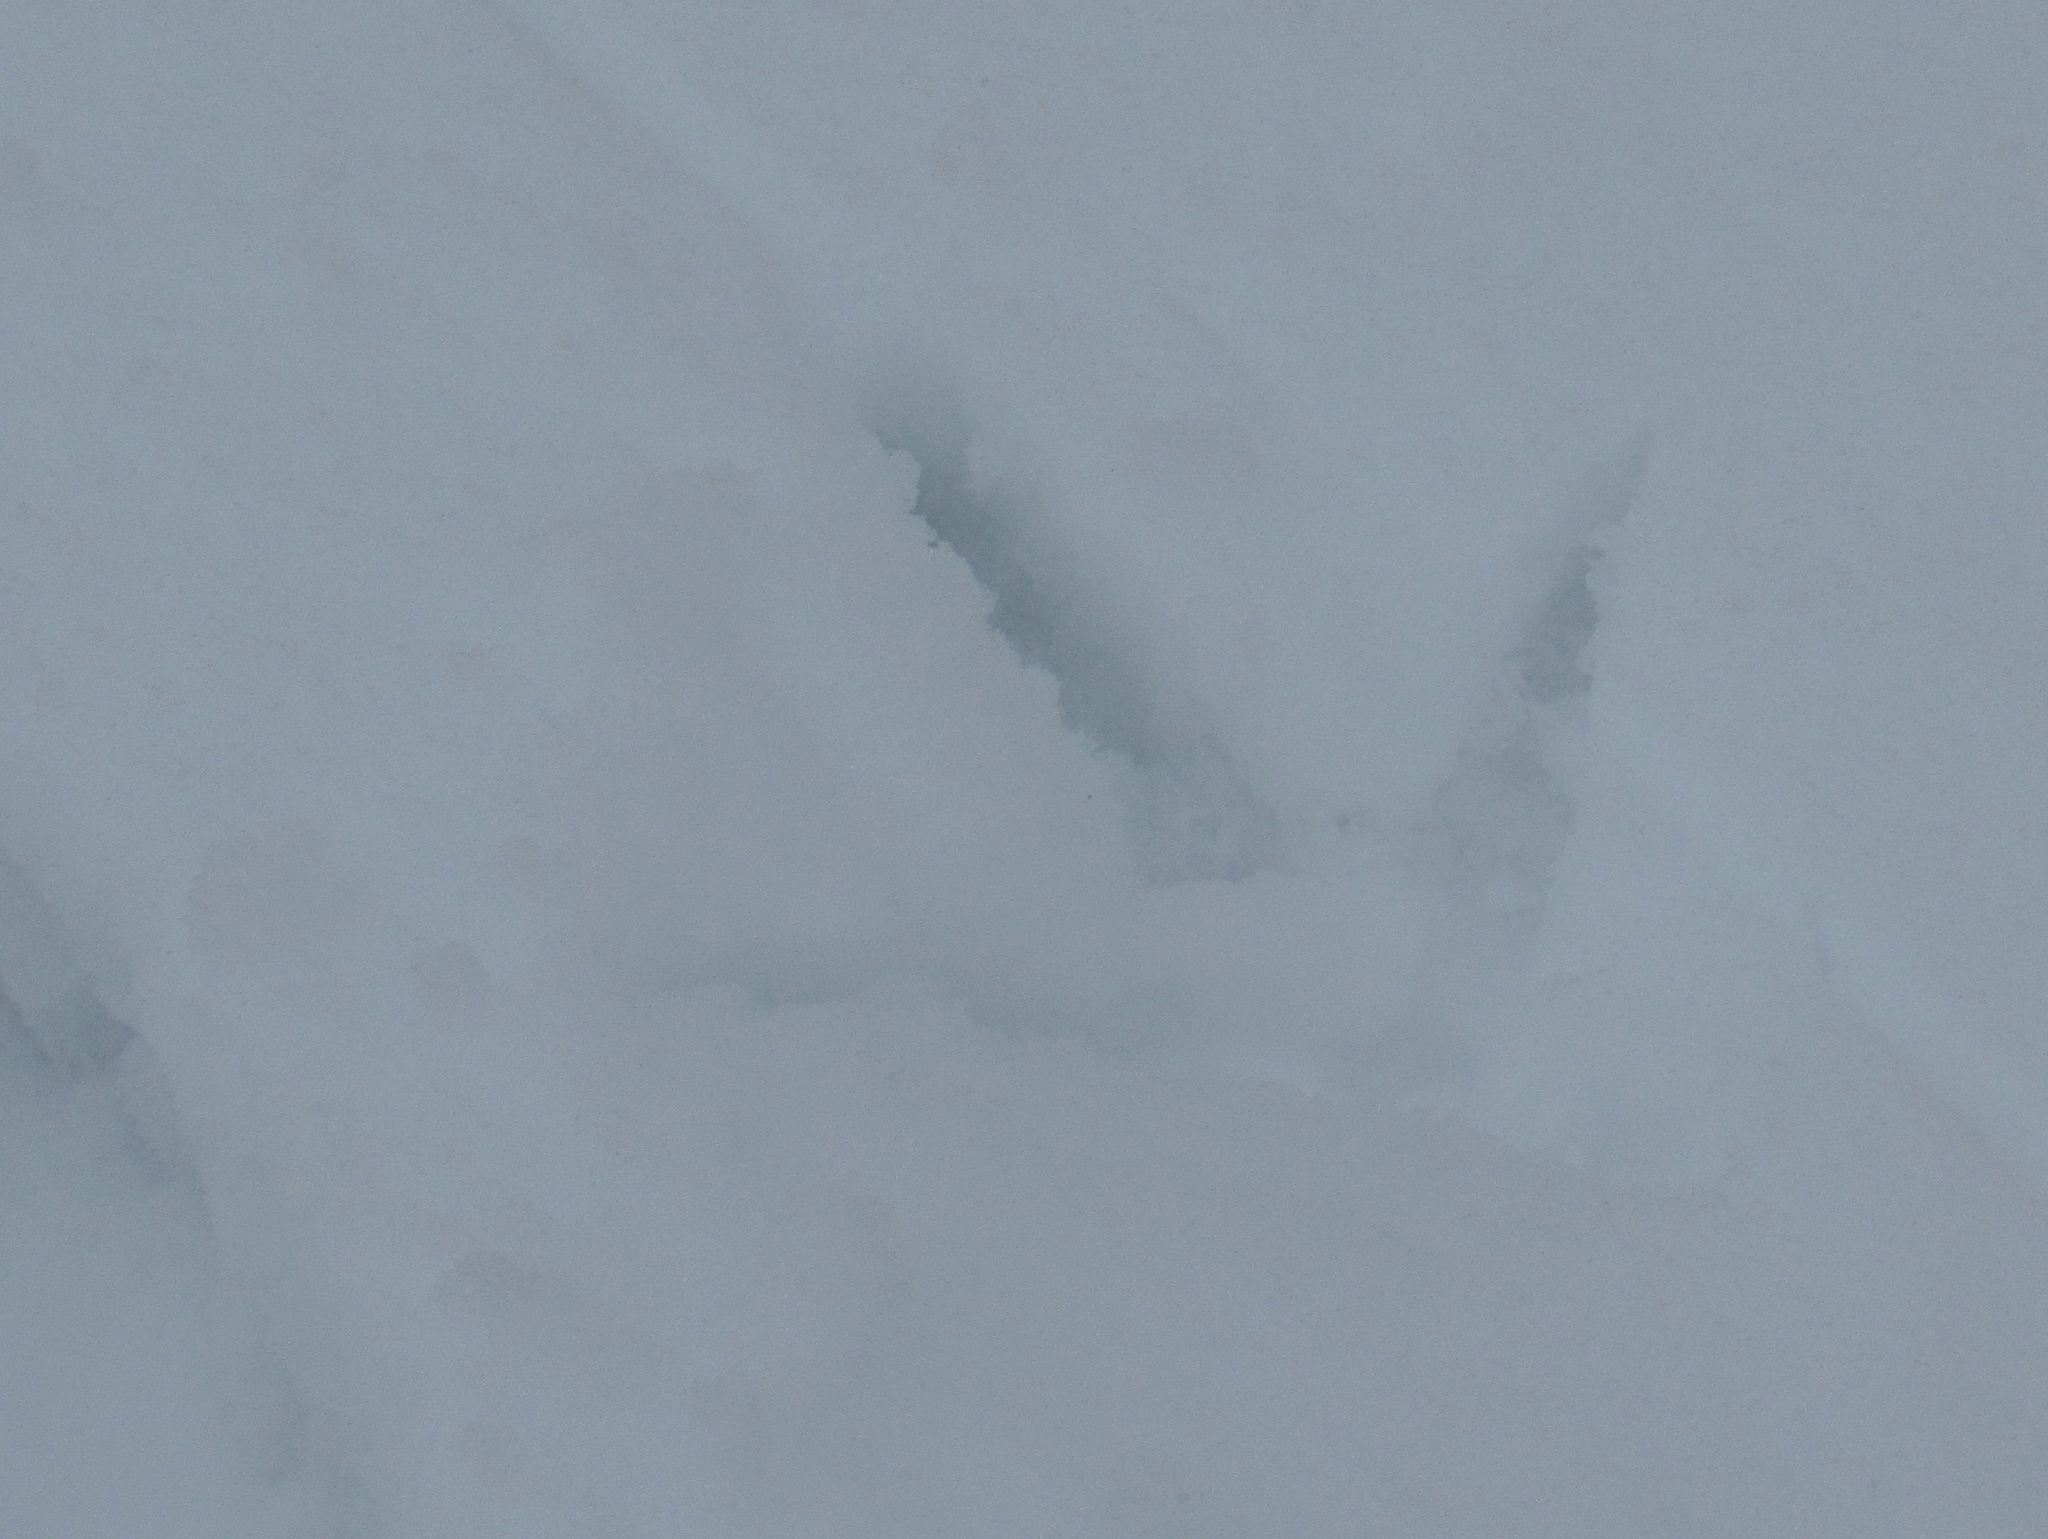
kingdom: Animalia
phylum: Chordata
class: Aves
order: Galliformes
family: Phasianidae
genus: Meleagris
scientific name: Meleagris gallopavo
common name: Wild turkey
